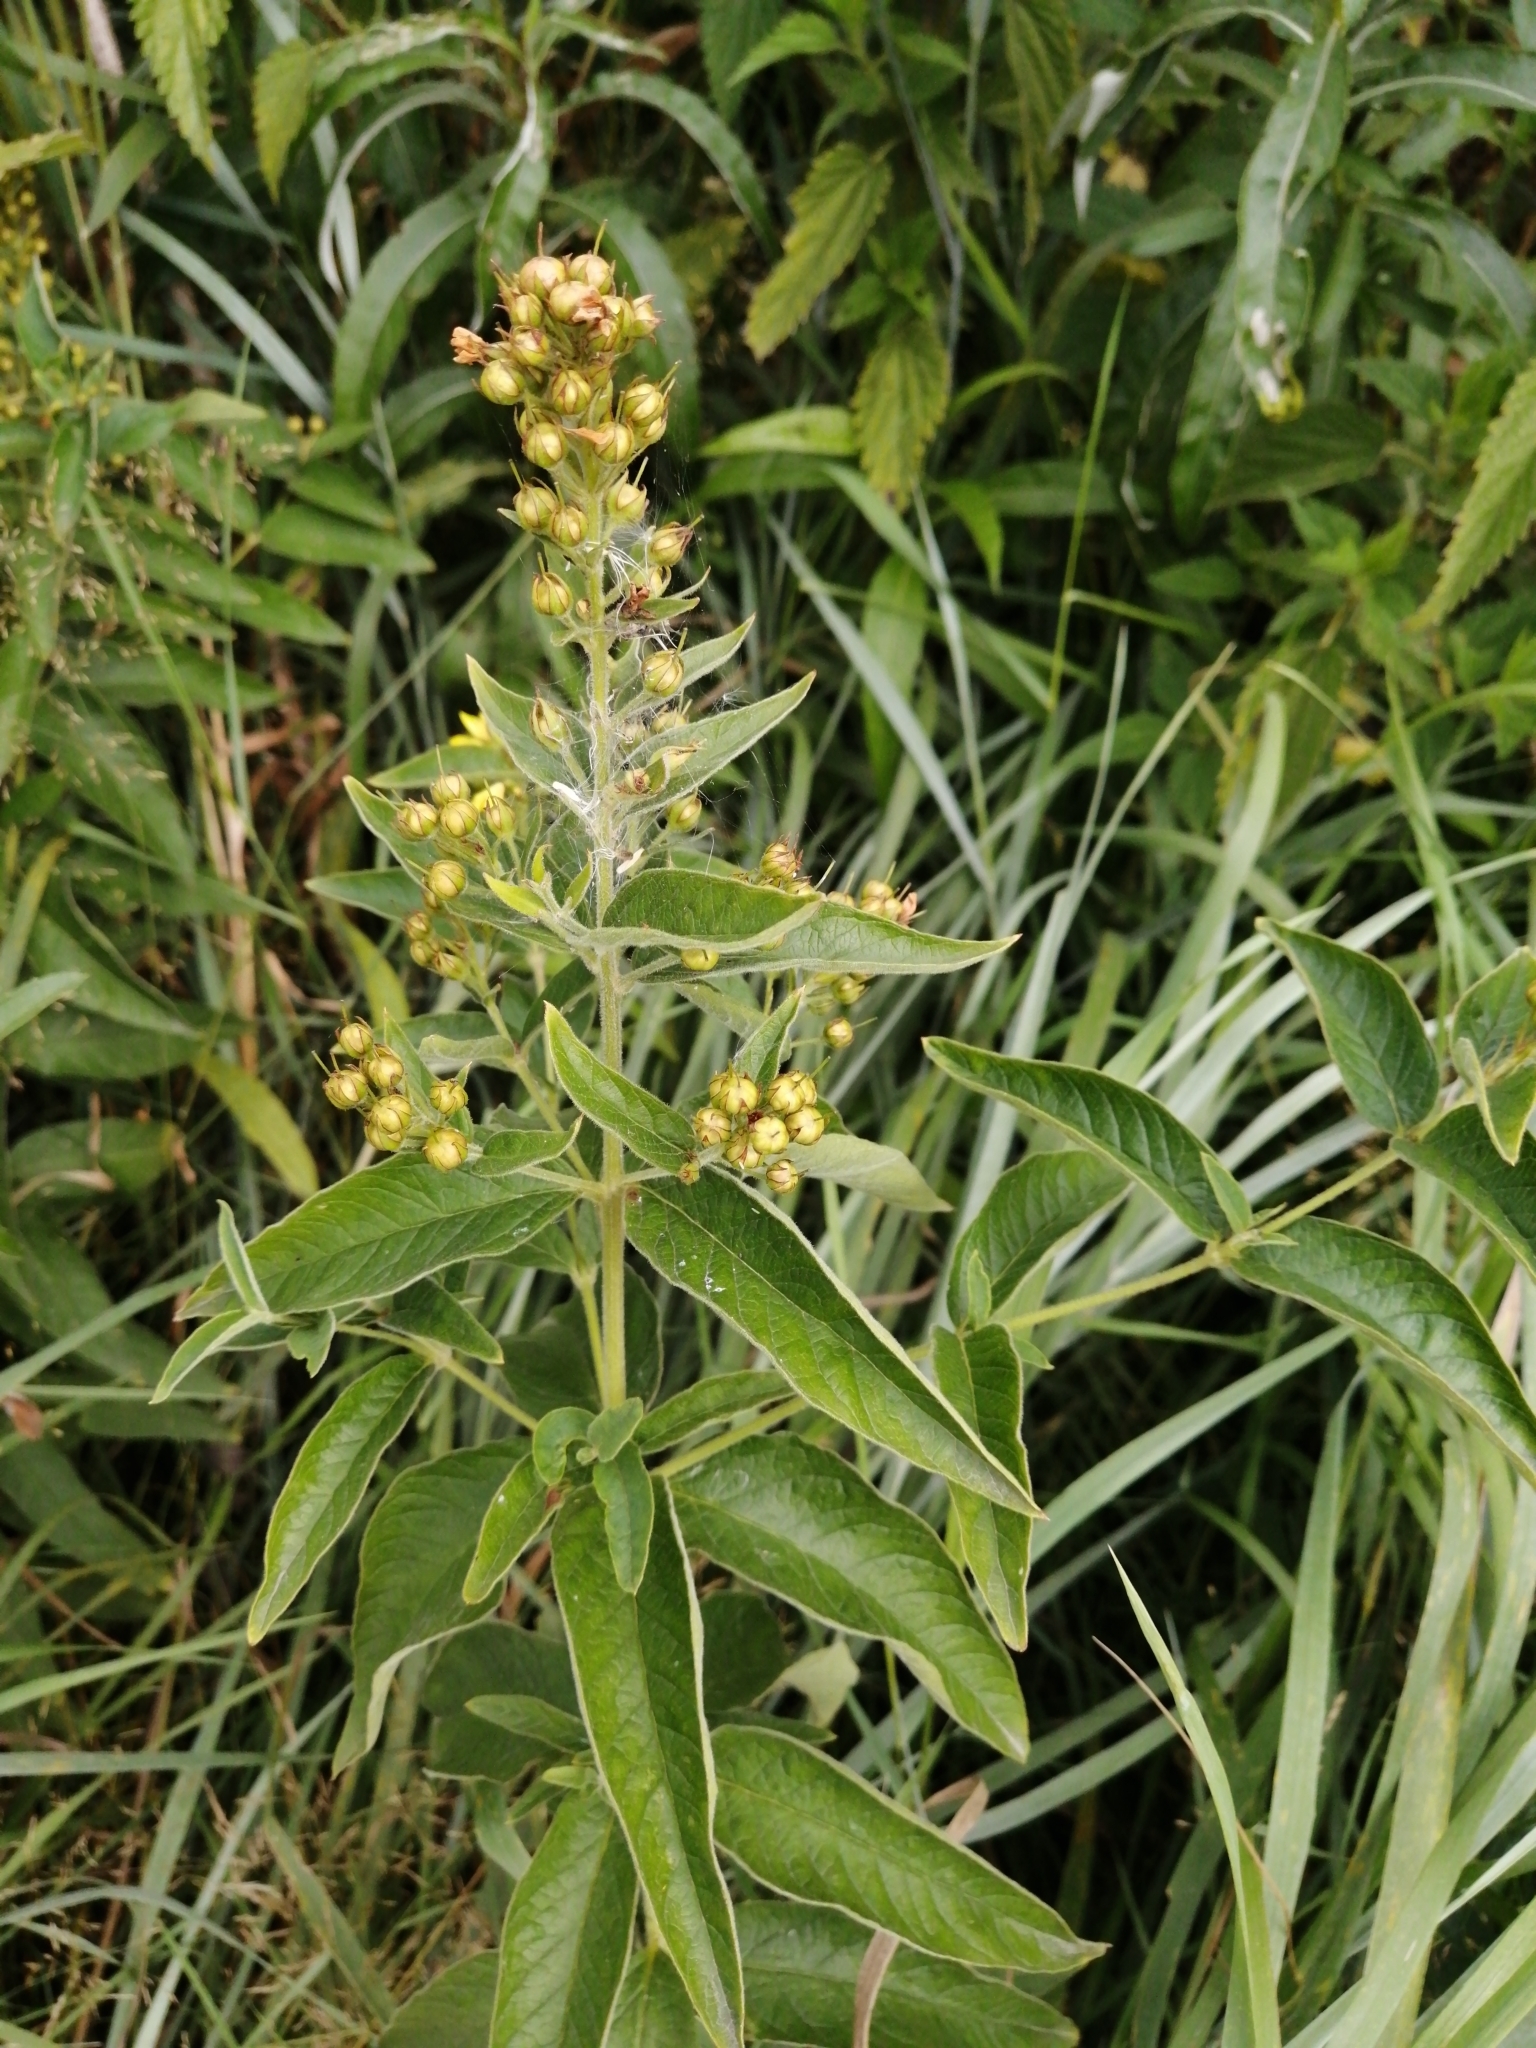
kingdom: Plantae
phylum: Tracheophyta
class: Magnoliopsida
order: Ericales
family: Primulaceae
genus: Lysimachia
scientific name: Lysimachia vulgaris
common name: Yellow loosestrife
